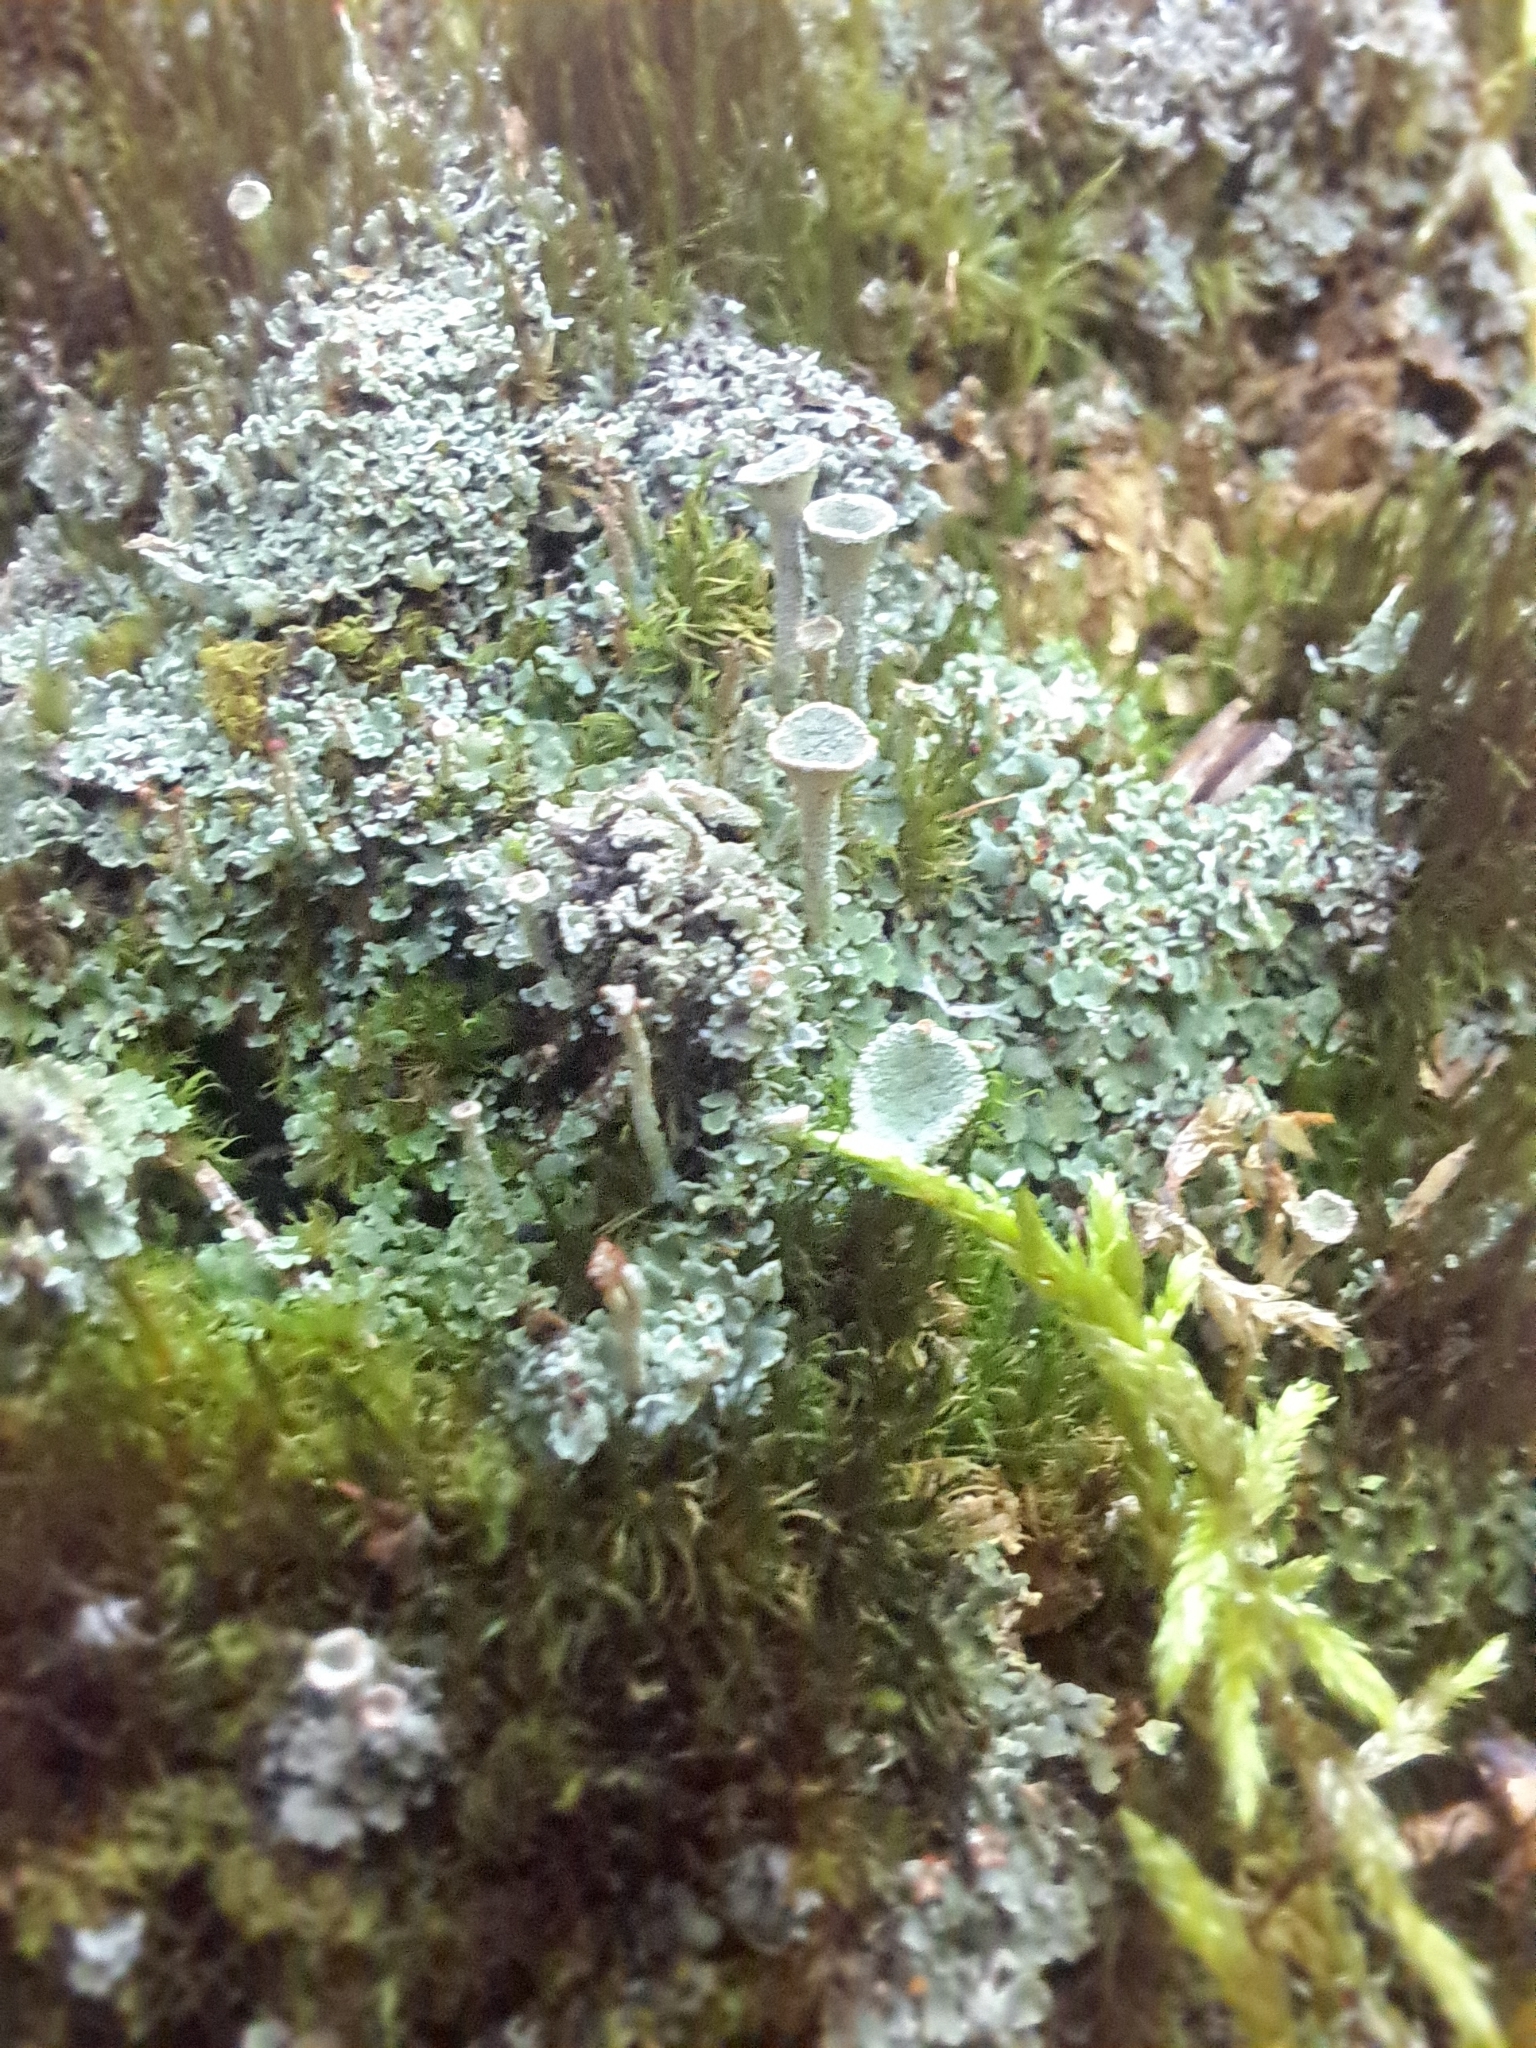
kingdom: Fungi
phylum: Ascomycota
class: Lecanoromycetes
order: Lecanorales
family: Cladoniaceae
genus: Cladonia
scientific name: Cladonia fimbriata
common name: Powdered trumpet lichen
